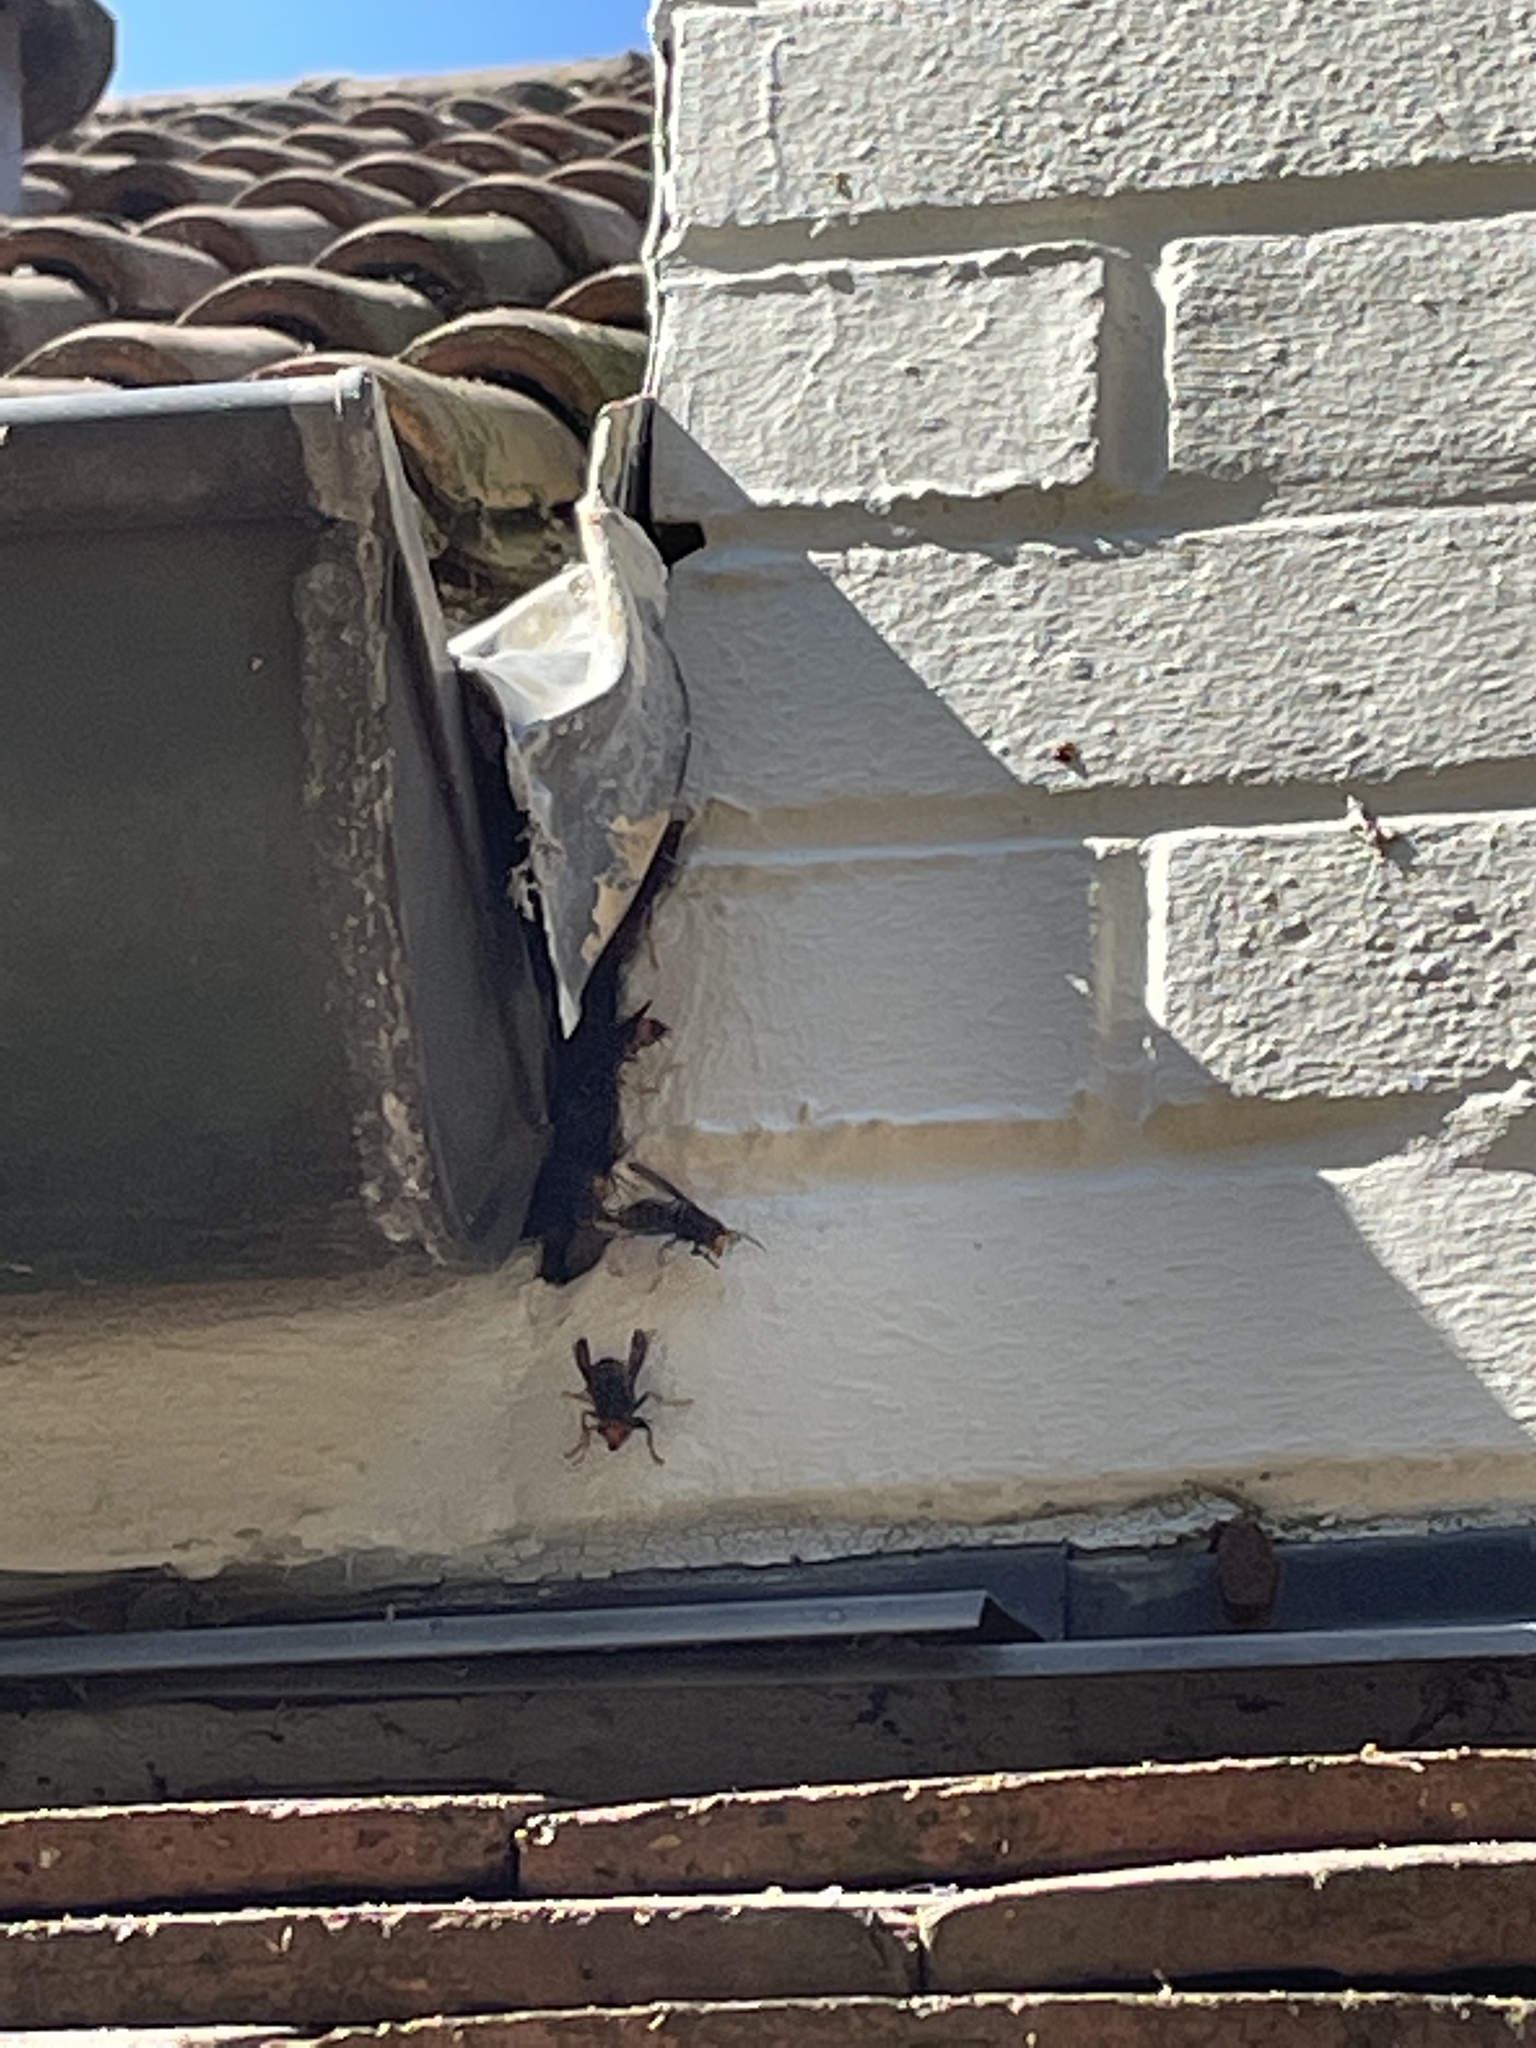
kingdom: Animalia
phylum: Arthropoda
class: Insecta
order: Hymenoptera
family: Vespidae
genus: Vespa
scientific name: Vespa velutina
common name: Asian hornet
